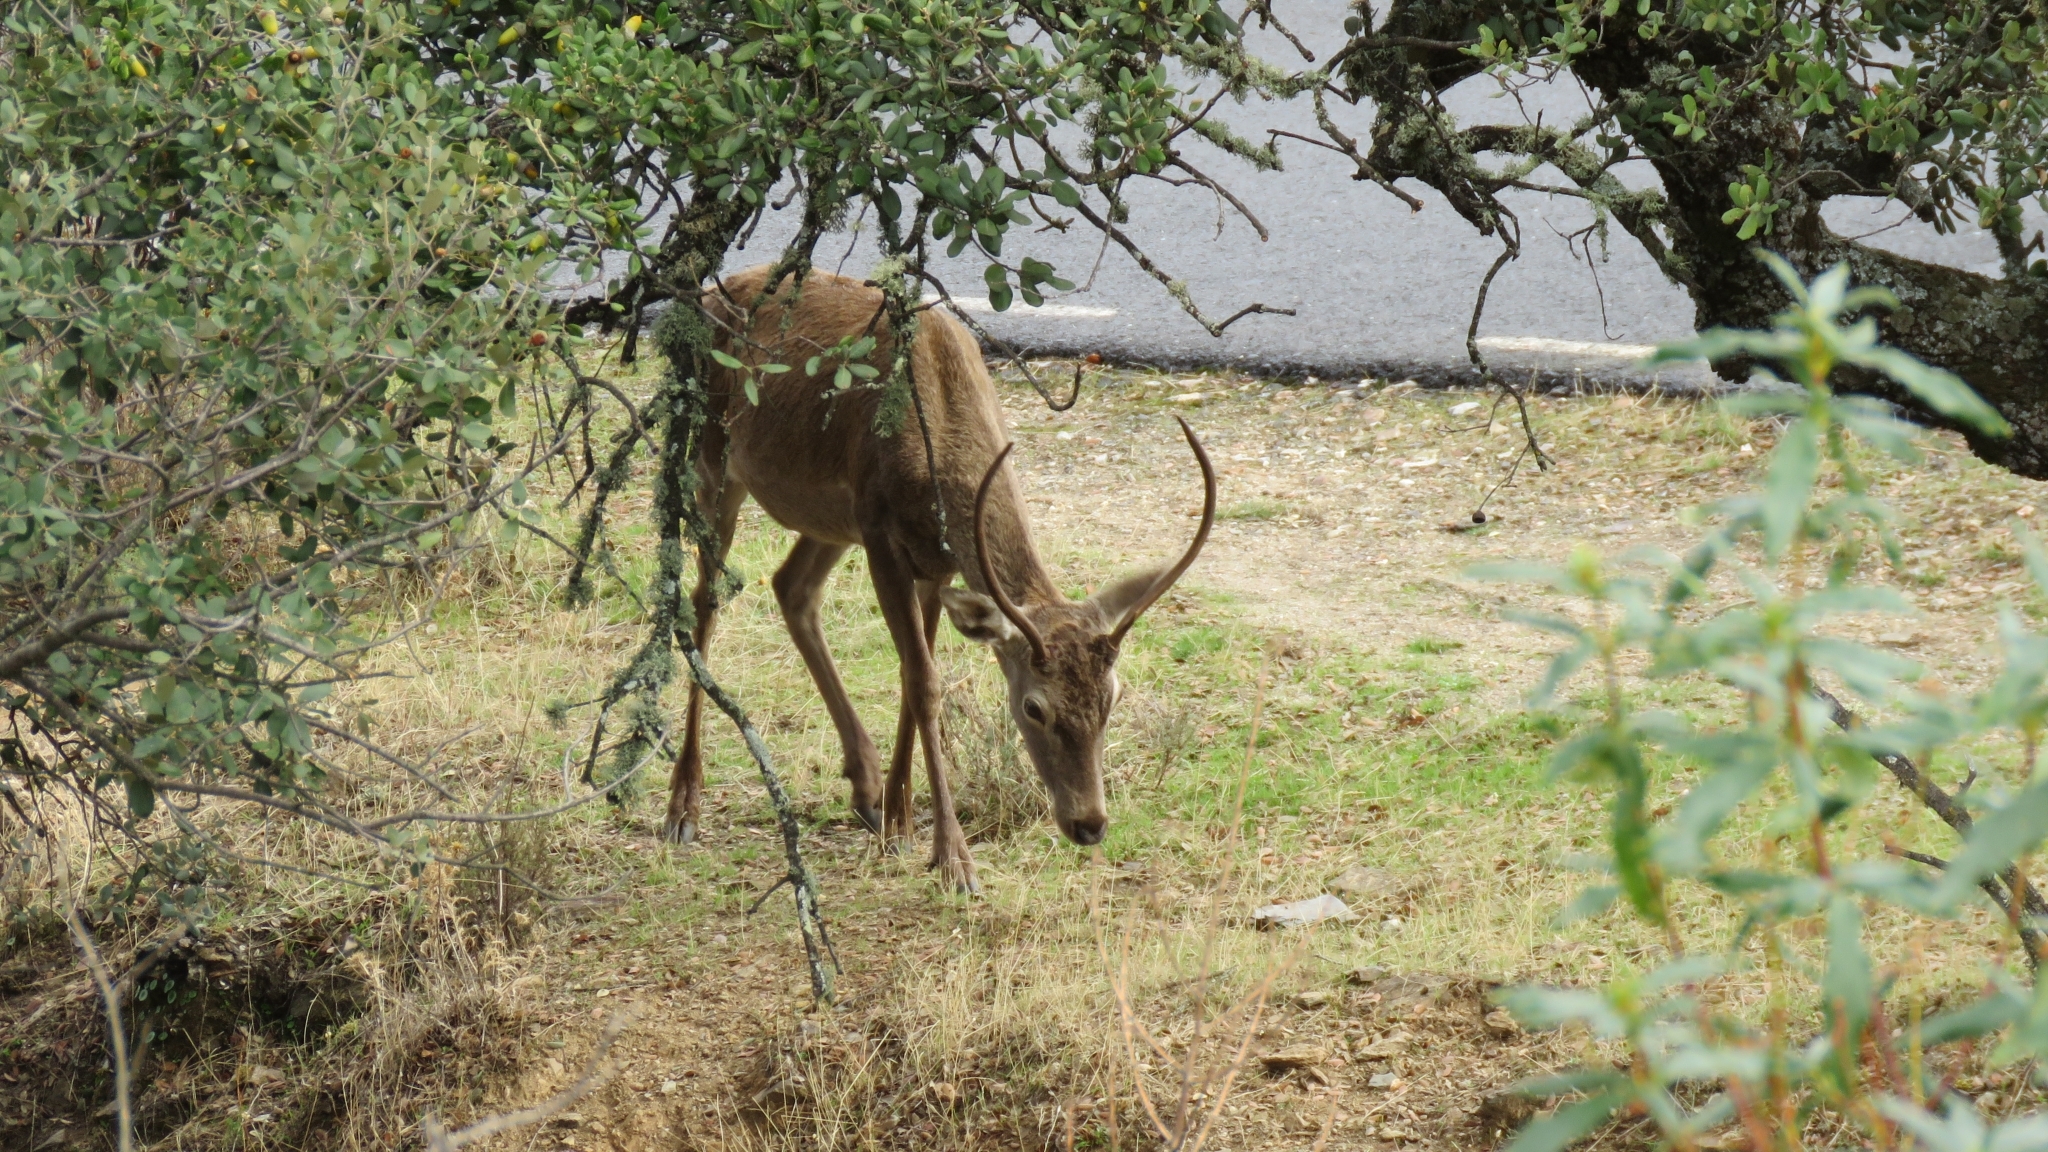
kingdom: Animalia
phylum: Chordata
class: Mammalia
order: Artiodactyla
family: Cervidae
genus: Cervus
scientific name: Cervus elaphus
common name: Red deer
